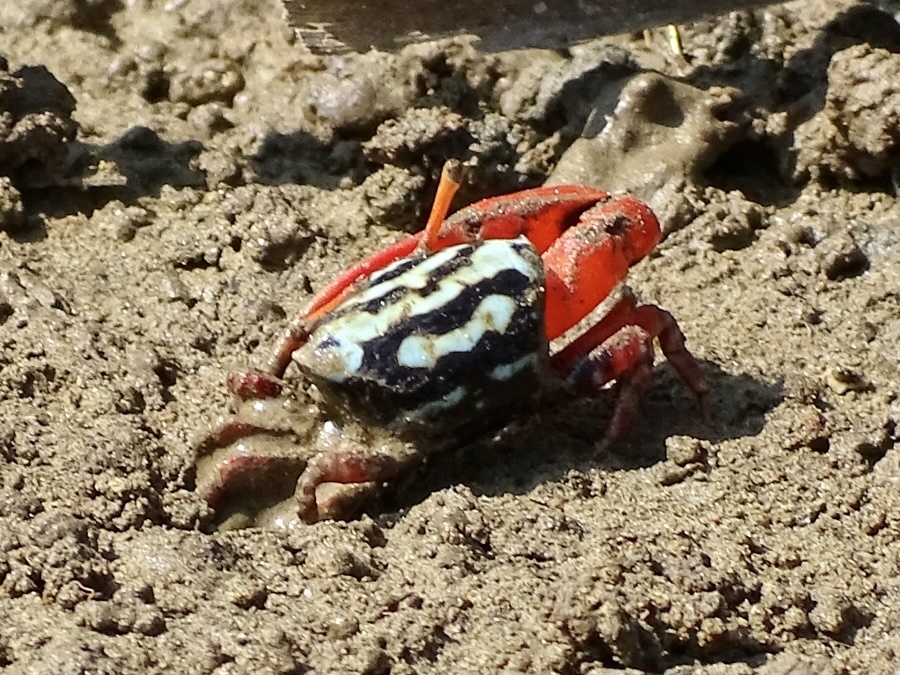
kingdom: Animalia
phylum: Arthropoda
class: Malacostraca
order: Decapoda
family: Ocypodidae
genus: Paraleptuca
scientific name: Paraleptuca splendida
